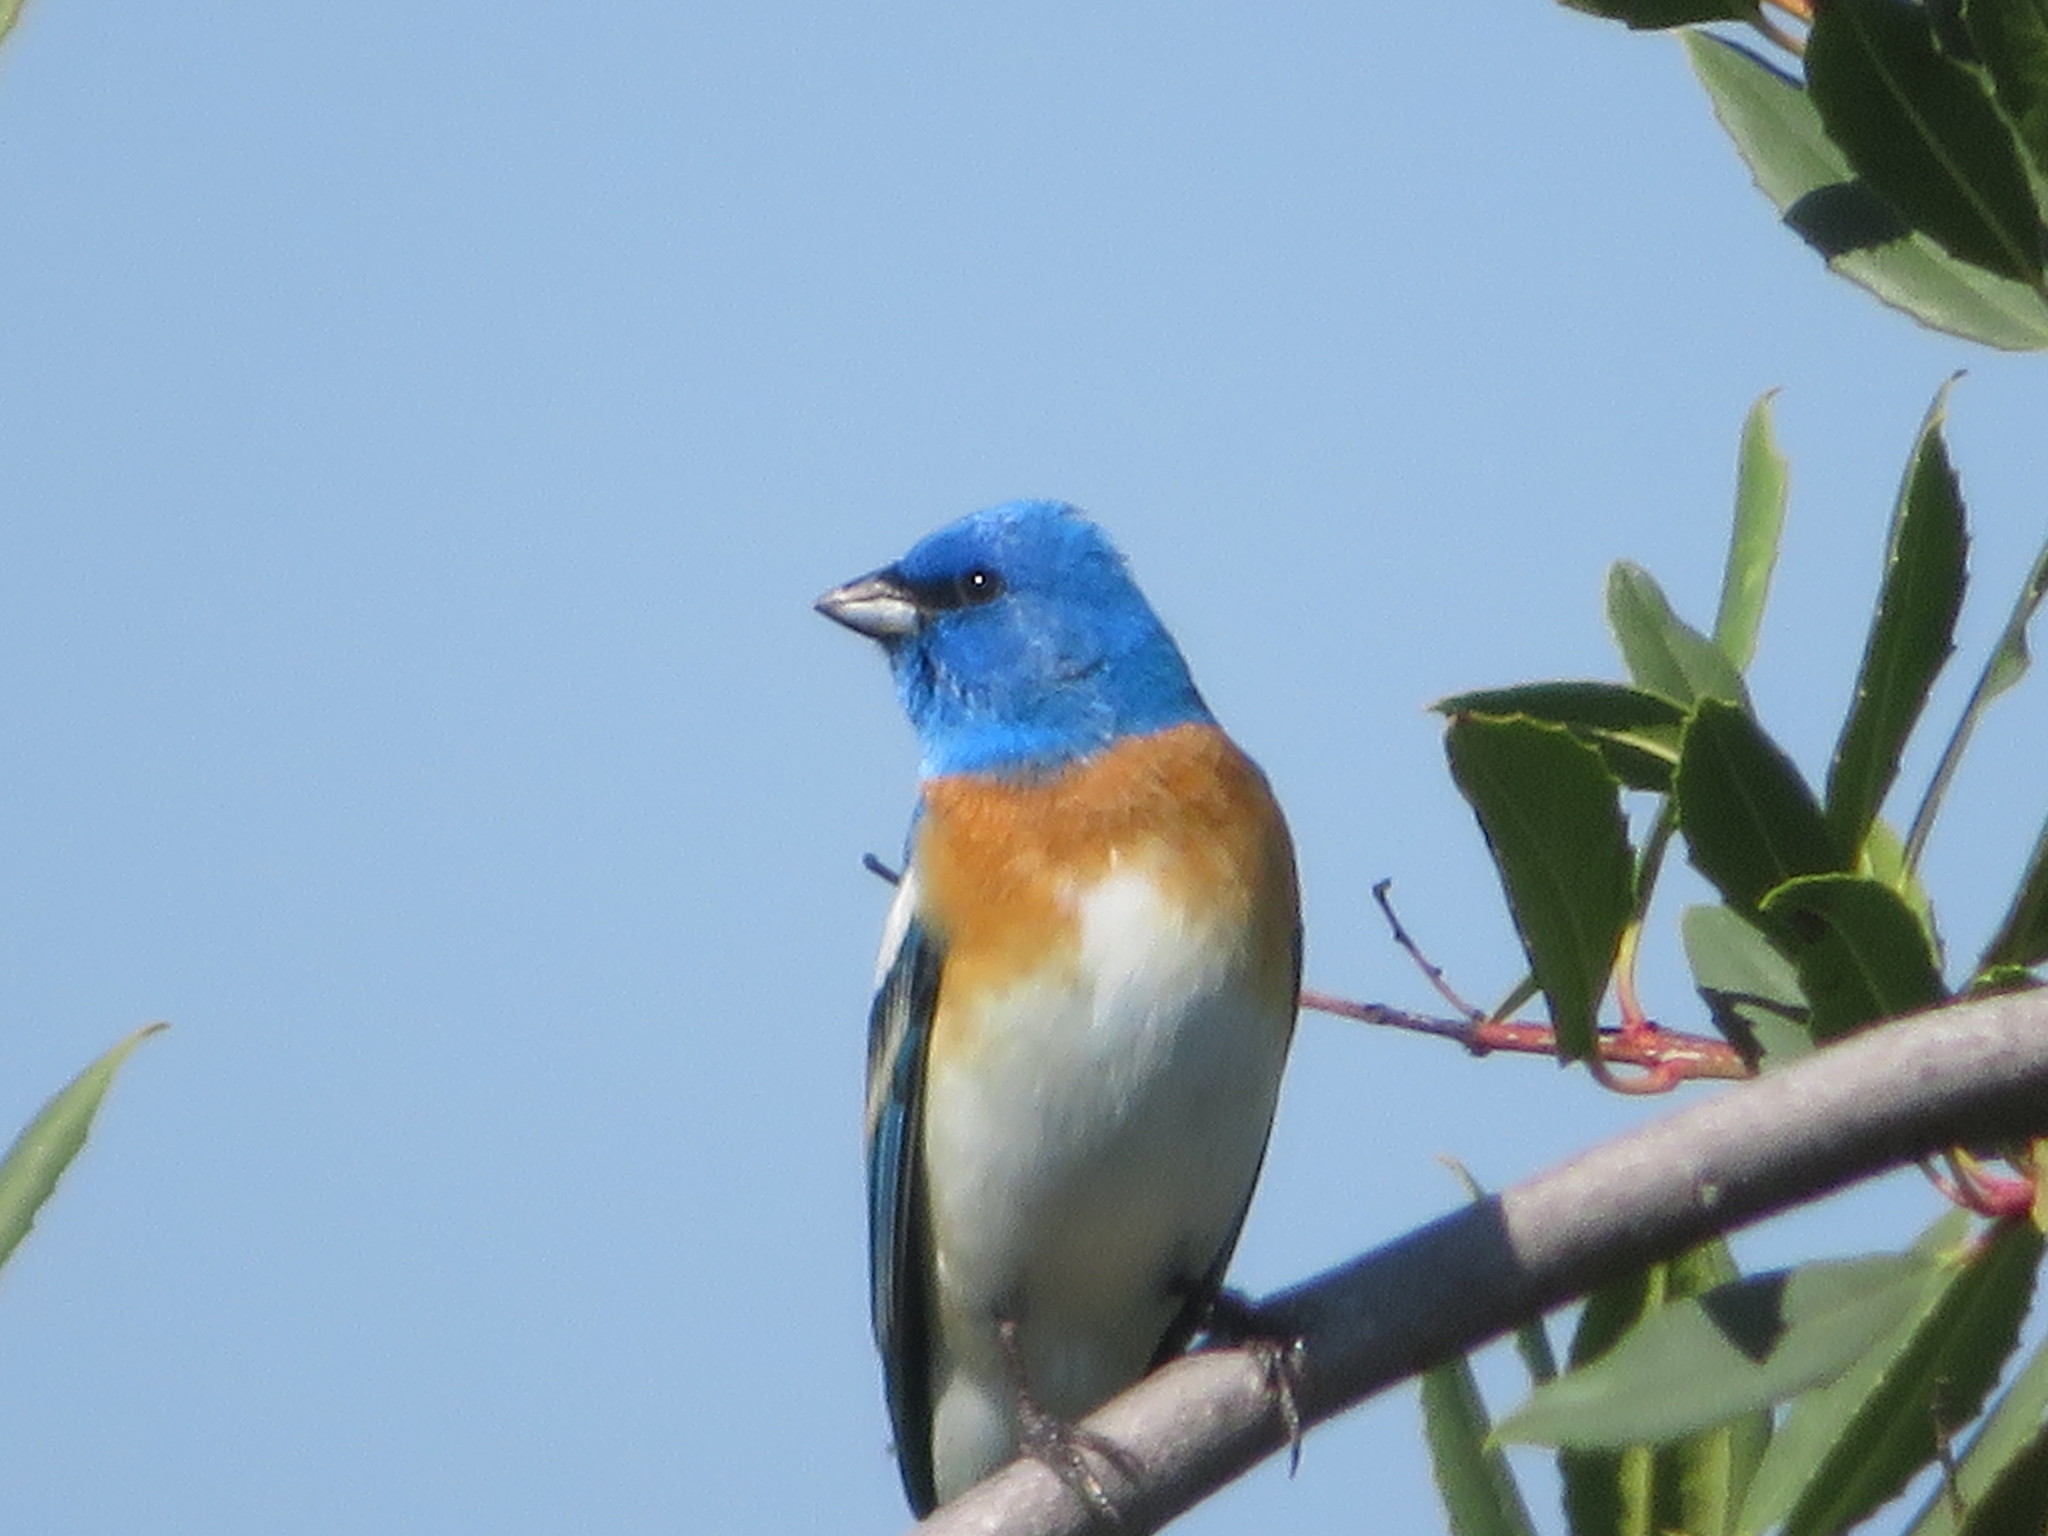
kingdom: Animalia
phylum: Chordata
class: Aves
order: Passeriformes
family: Cardinalidae
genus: Passerina
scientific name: Passerina amoena
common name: Lazuli bunting
